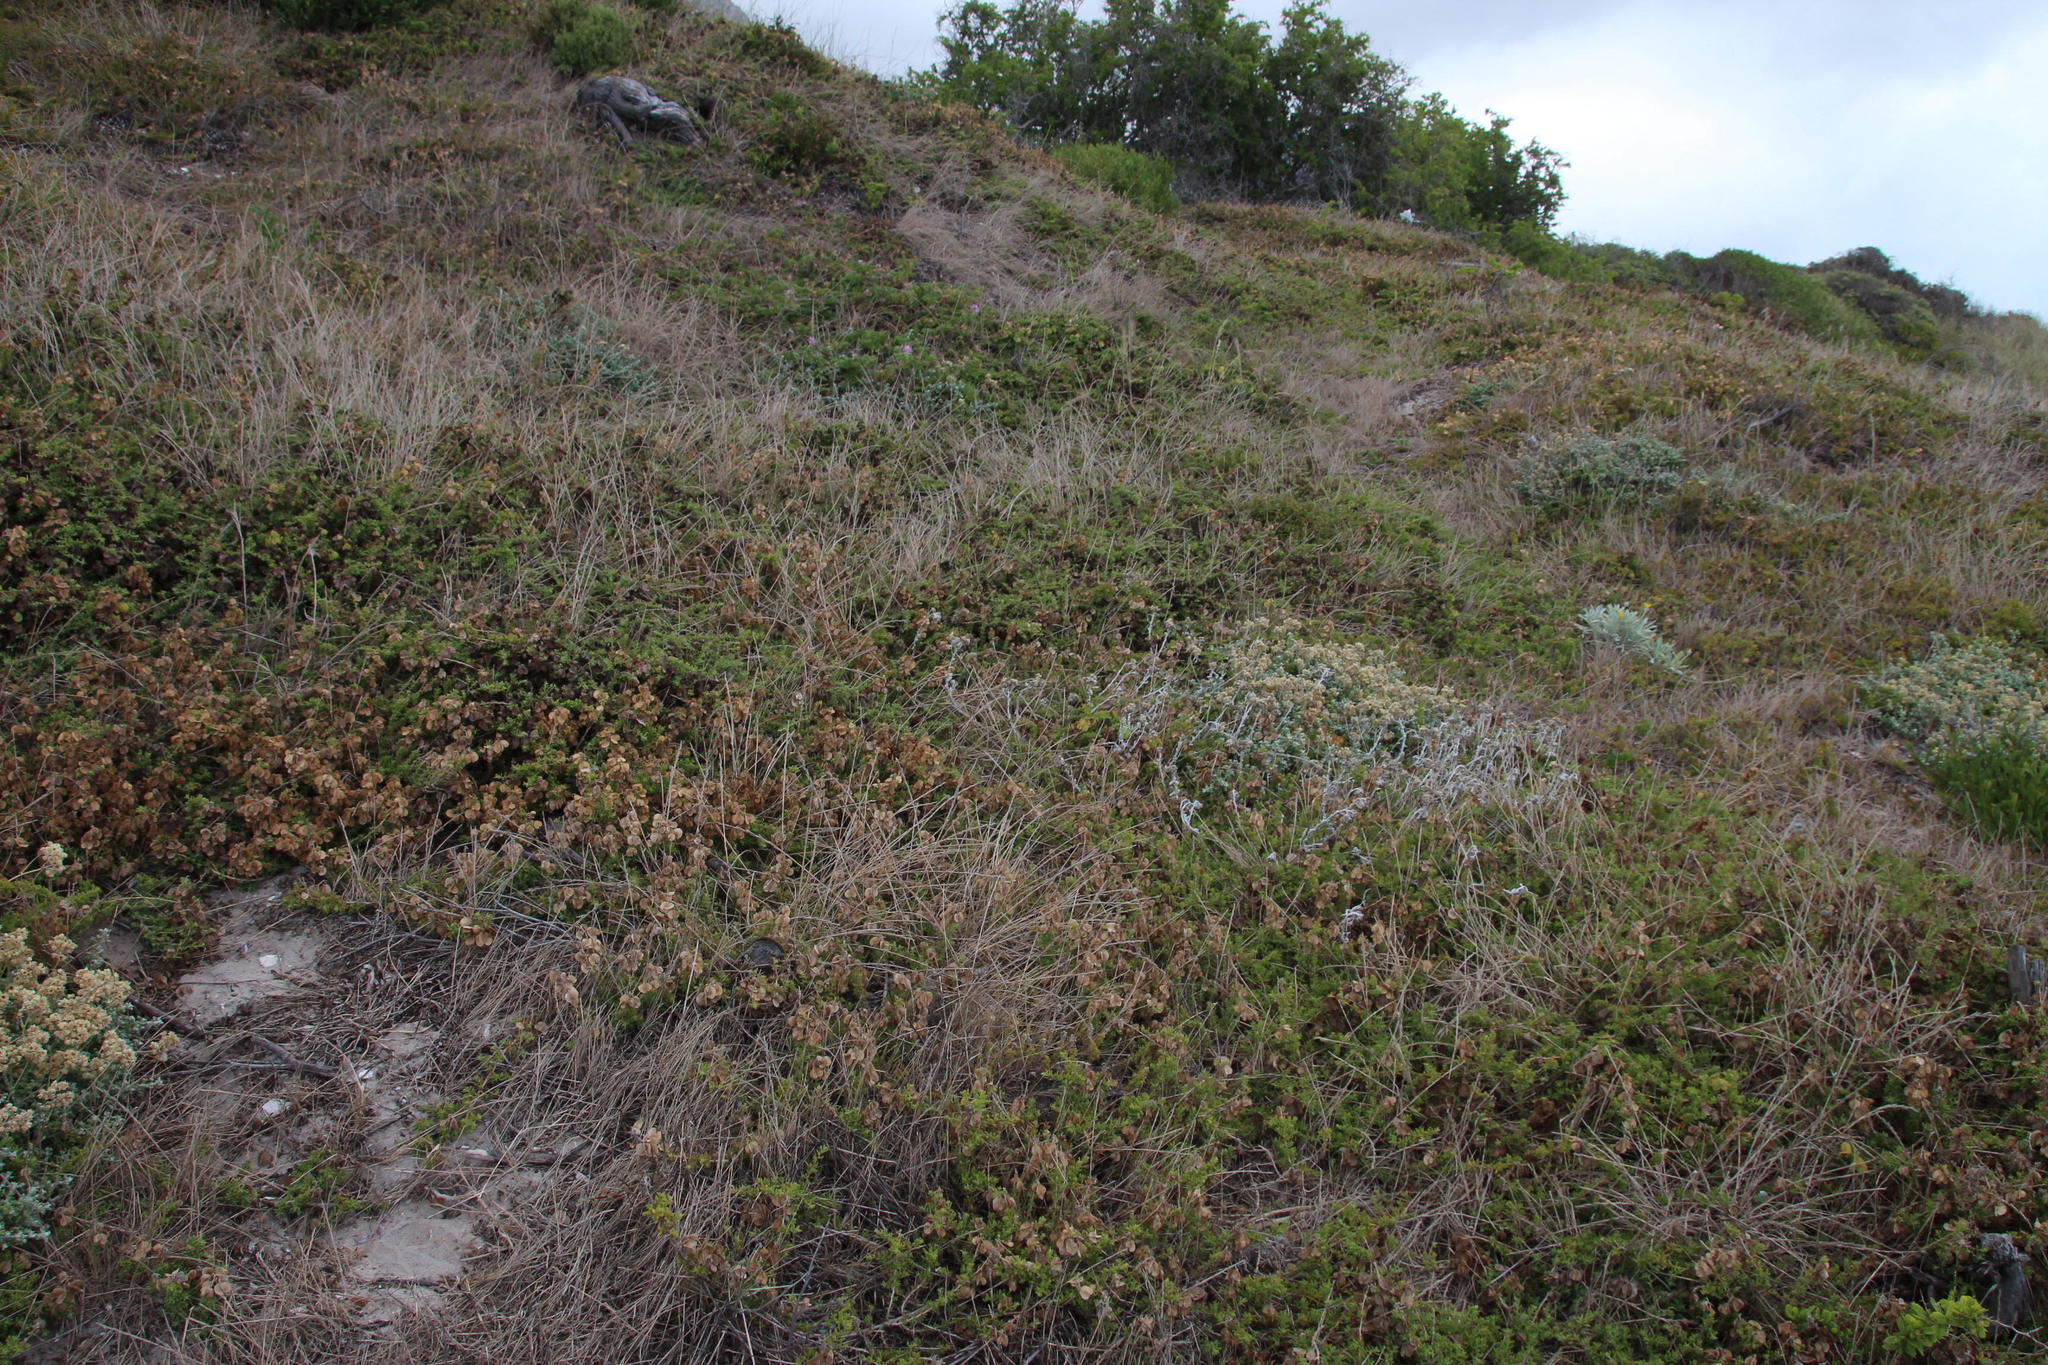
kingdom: Plantae
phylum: Tracheophyta
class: Magnoliopsida
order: Caryophyllales
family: Aizoaceae
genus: Tetragonia
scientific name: Tetragonia fruticosa
